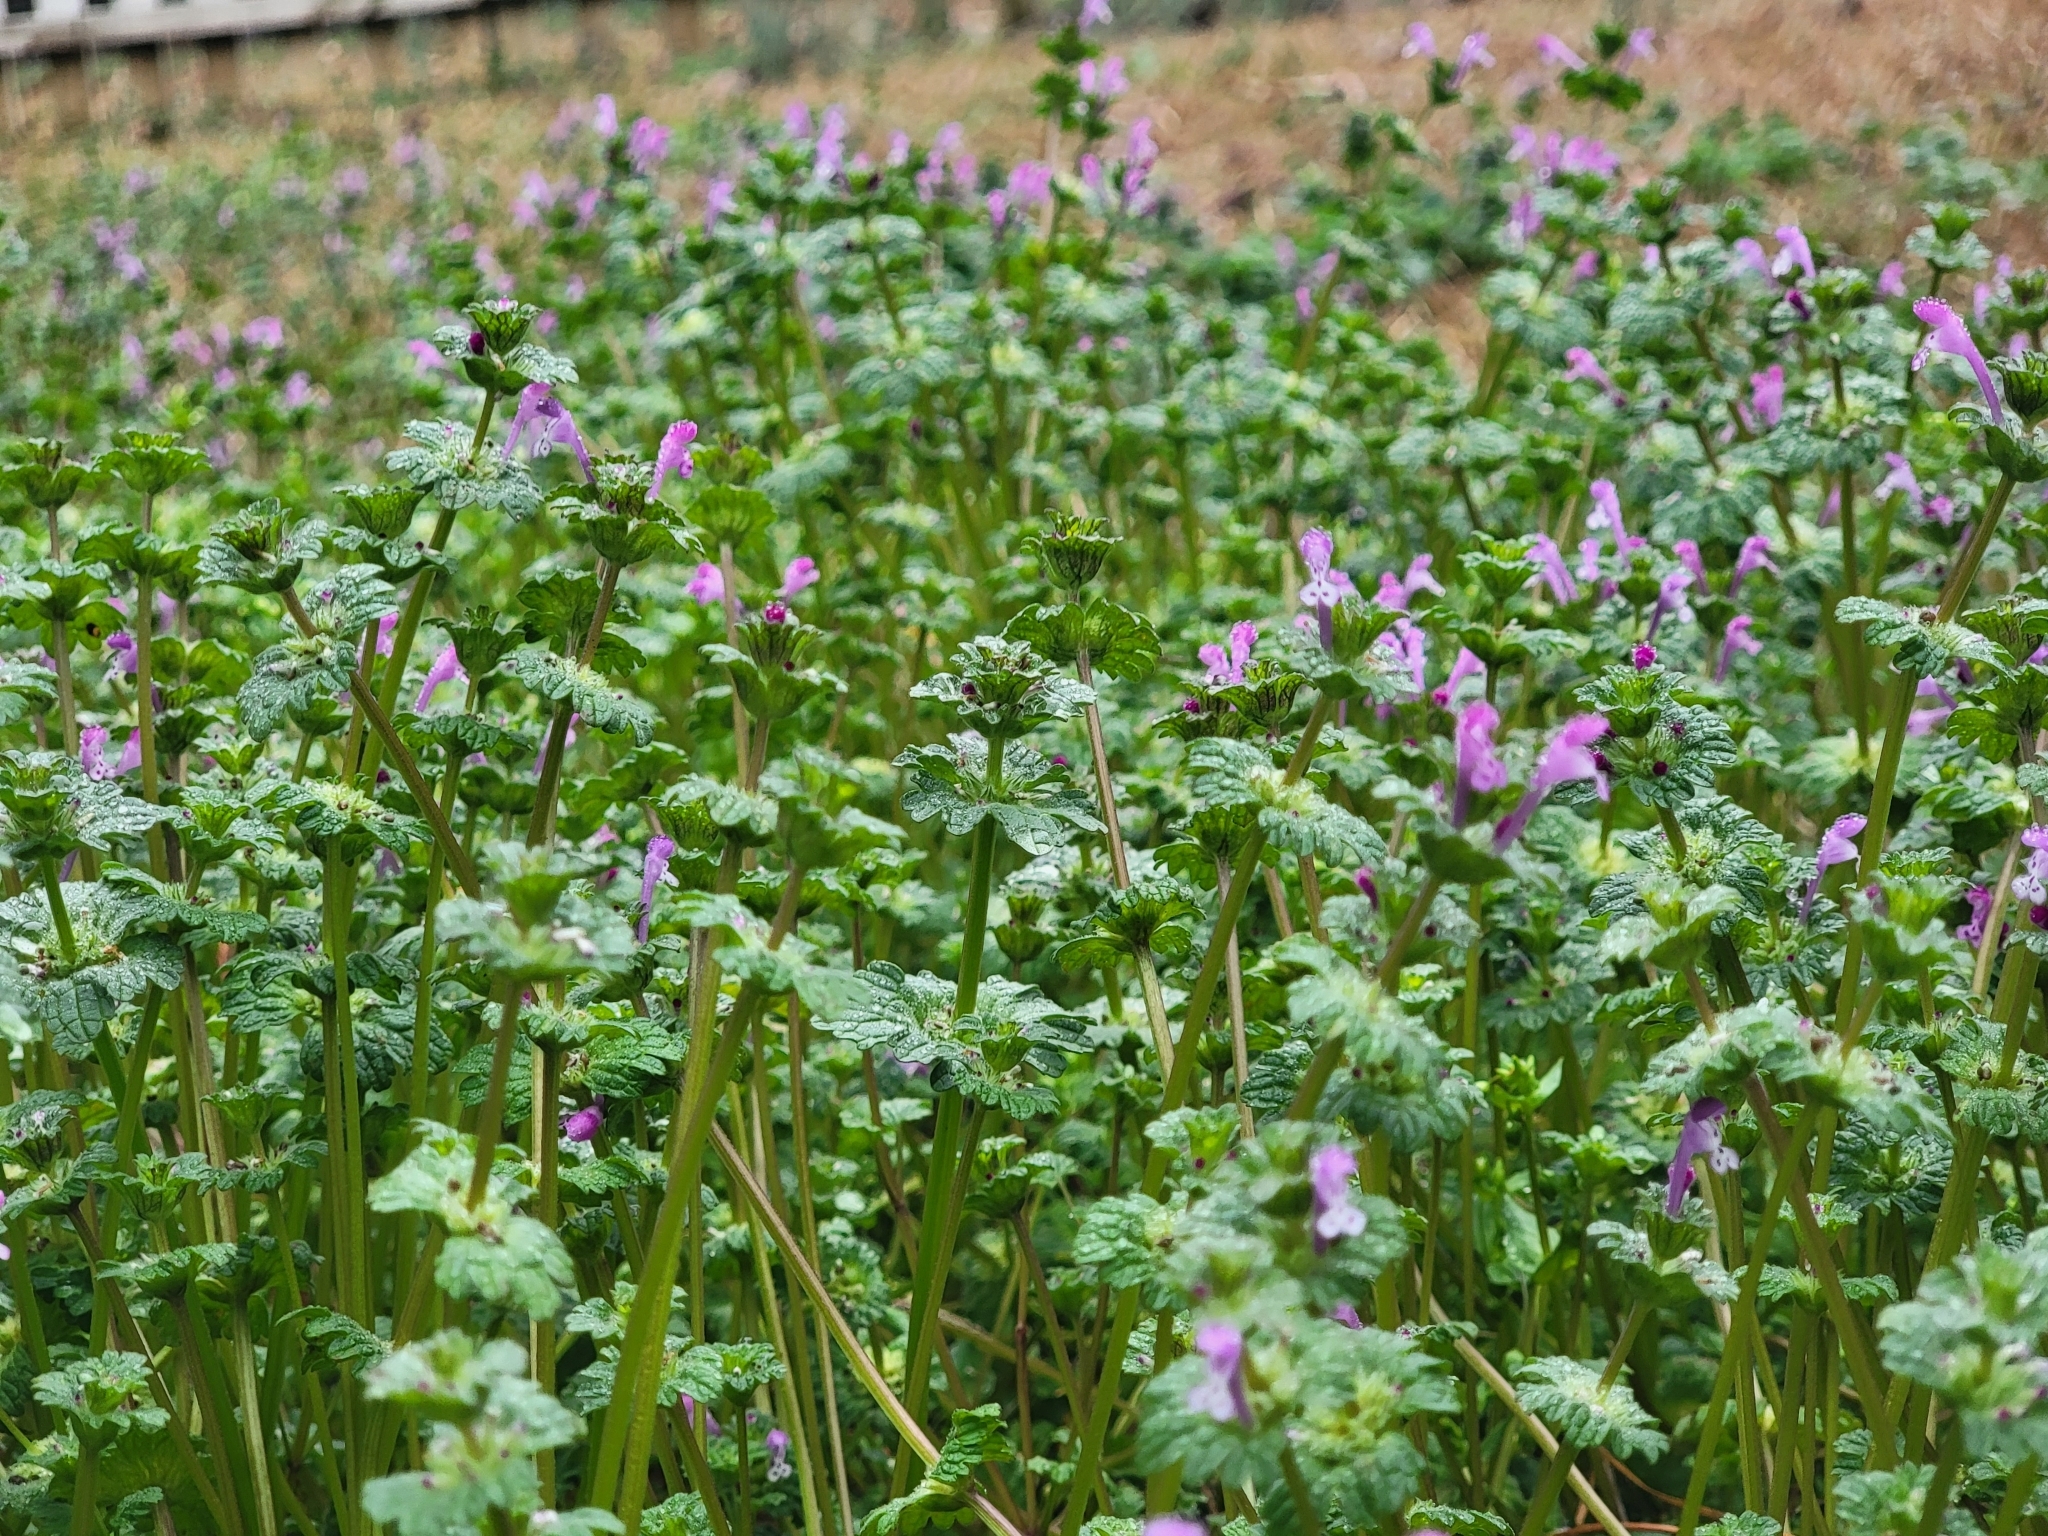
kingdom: Plantae
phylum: Tracheophyta
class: Magnoliopsida
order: Lamiales
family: Lamiaceae
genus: Lamium
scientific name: Lamium amplexicaule
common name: Henbit dead-nettle
